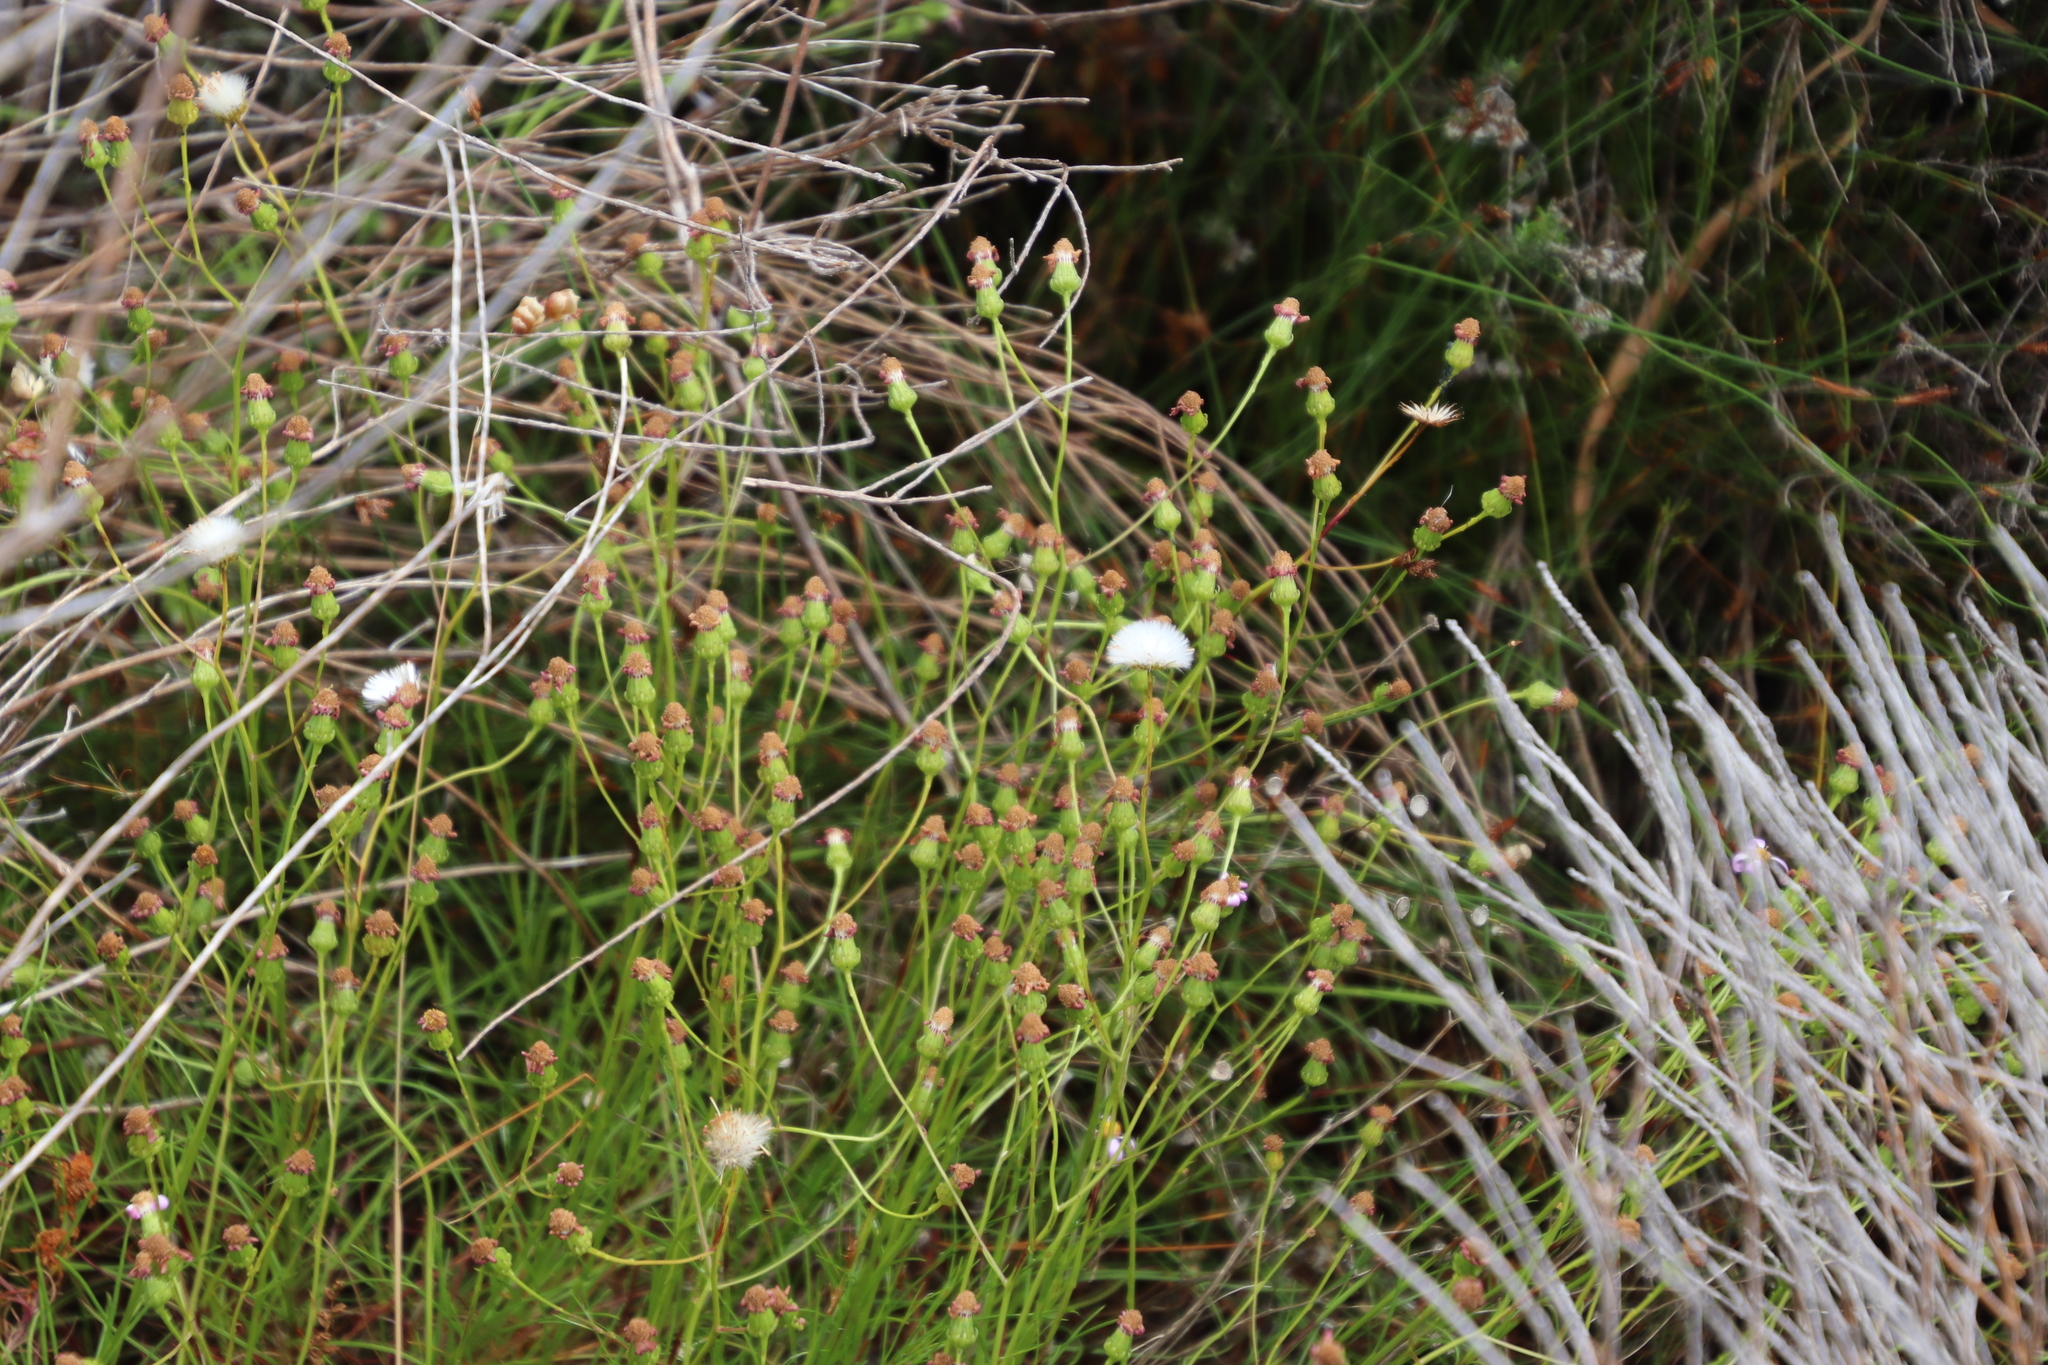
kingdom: Plantae
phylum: Tracheophyta
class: Magnoliopsida
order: Asterales
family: Asteraceae
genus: Senecio
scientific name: Senecio umbellatus
